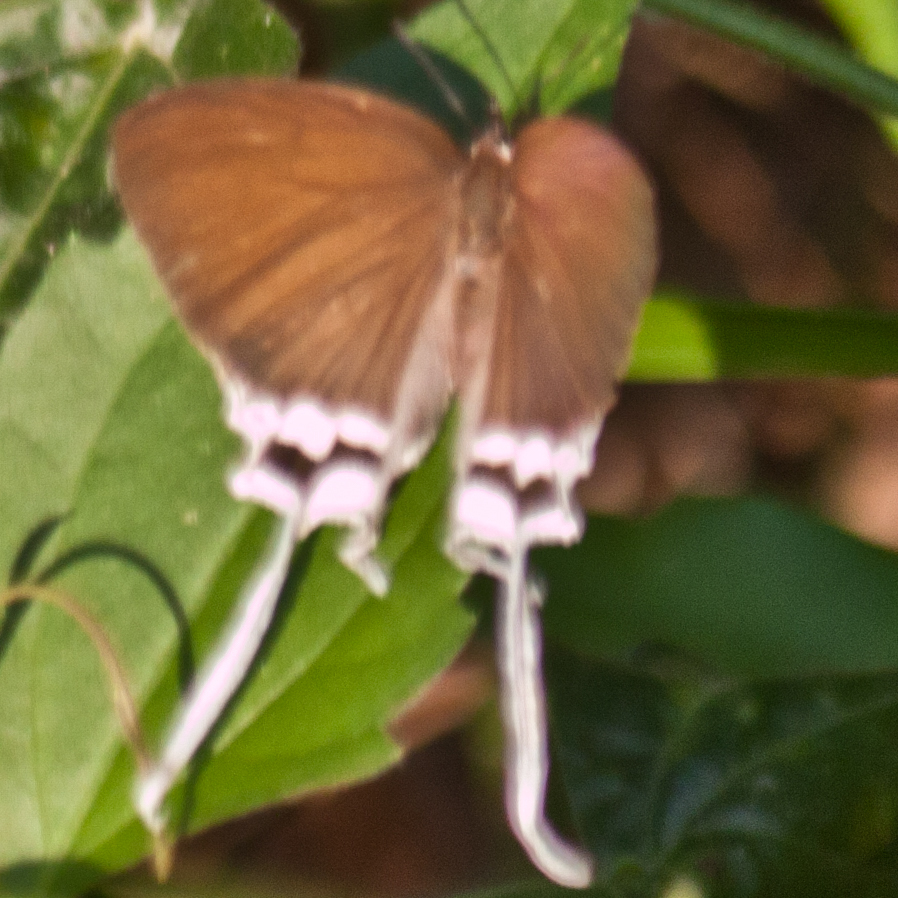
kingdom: Animalia
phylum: Arthropoda
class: Insecta
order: Lepidoptera
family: Lycaenidae
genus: Cheritra
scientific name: Cheritra freja
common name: Common imperial
